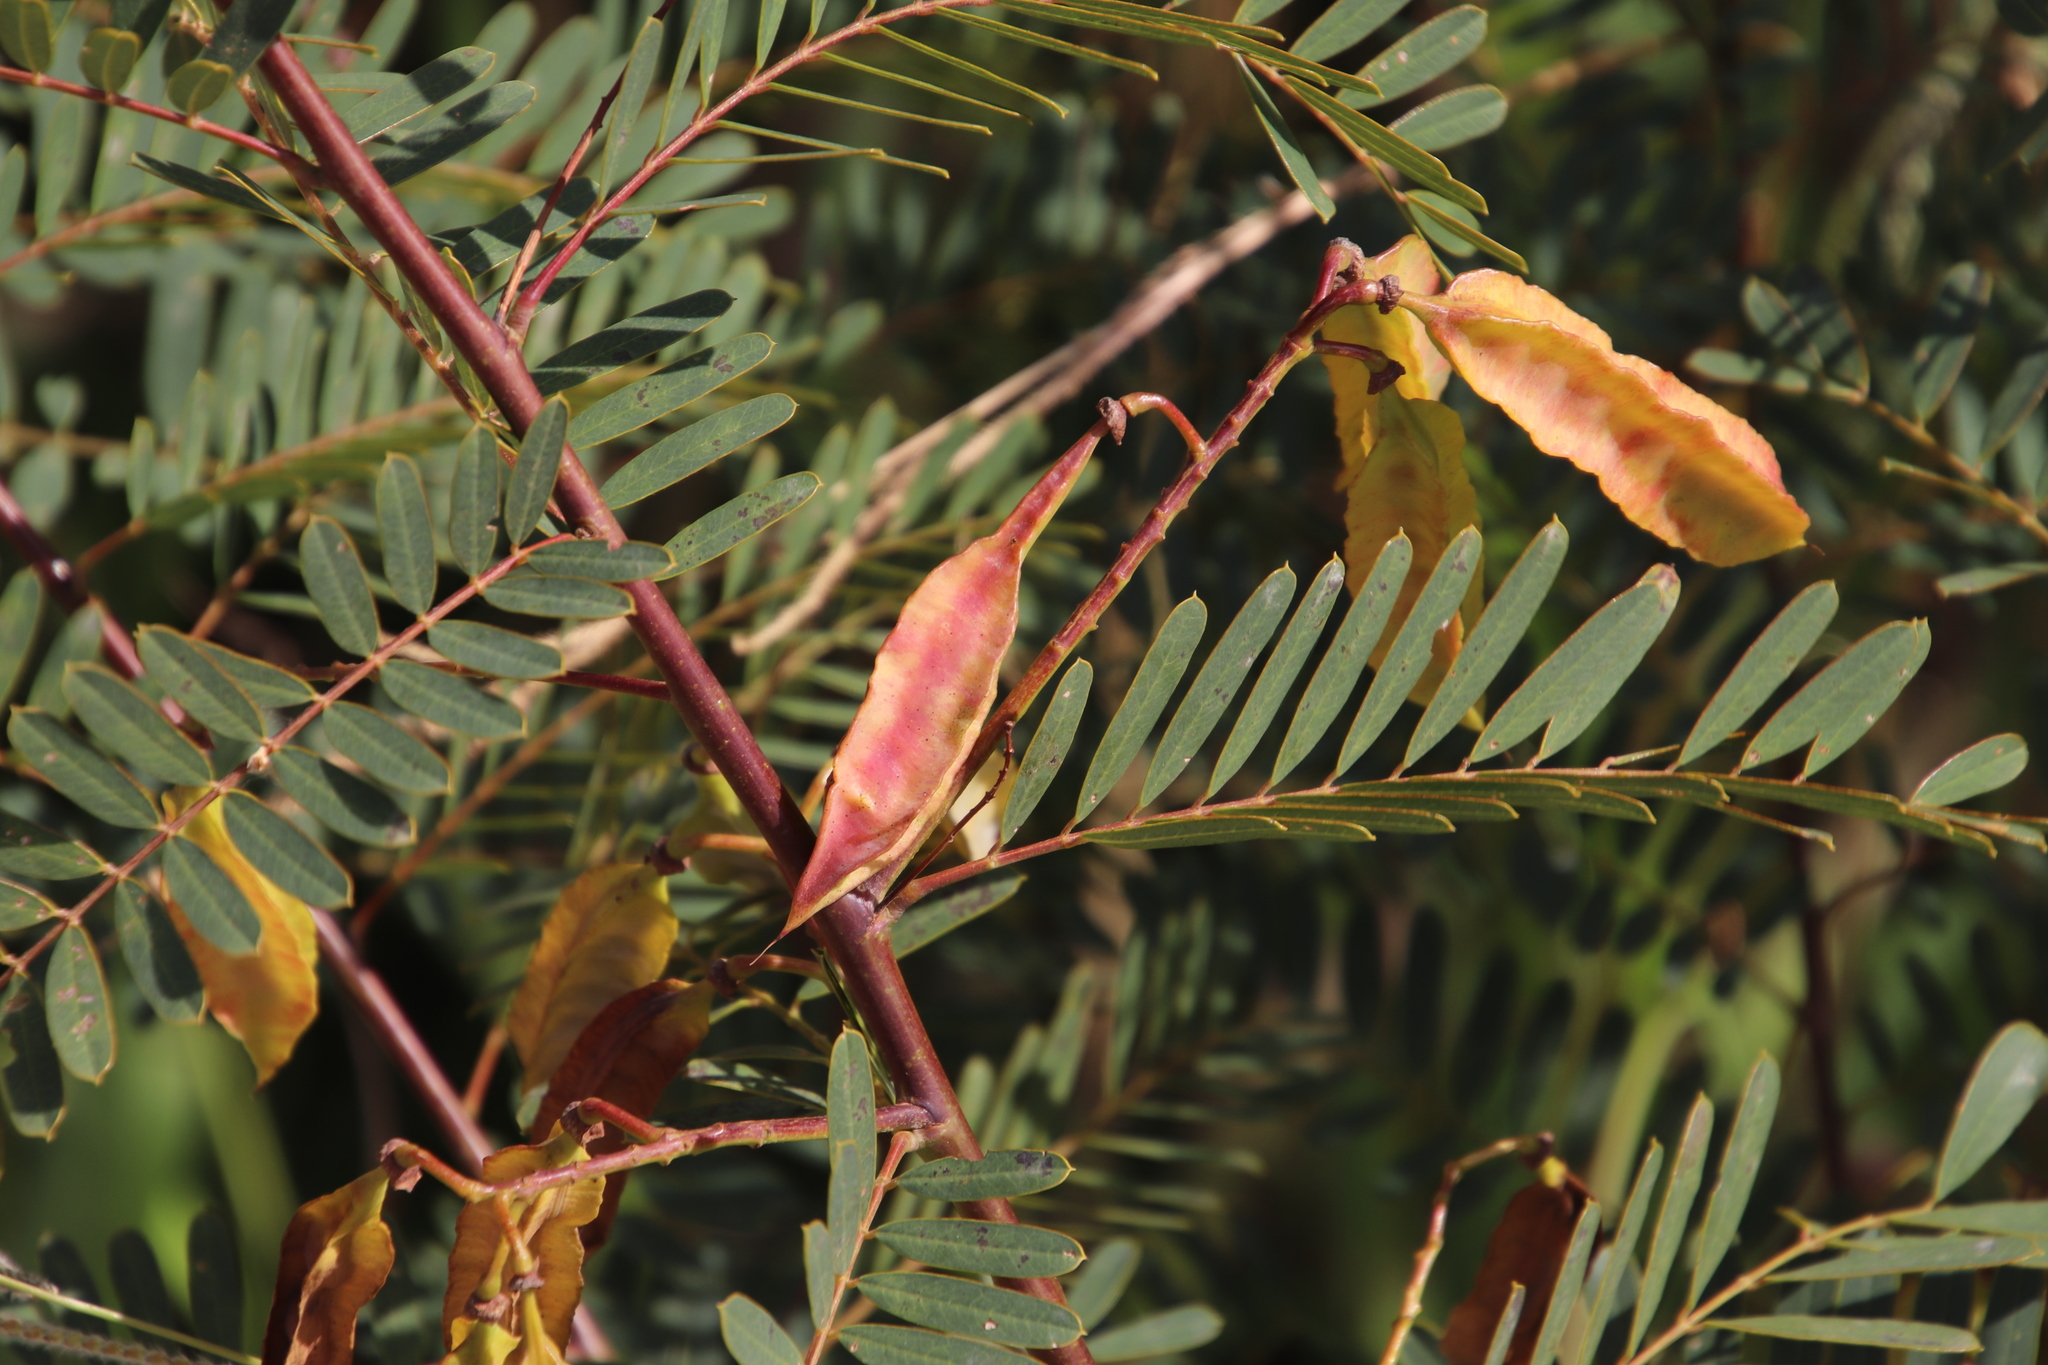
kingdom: Plantae
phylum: Tracheophyta
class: Magnoliopsida
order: Fabales
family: Fabaceae
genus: Sesbania
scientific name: Sesbania punicea
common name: Rattlebox
